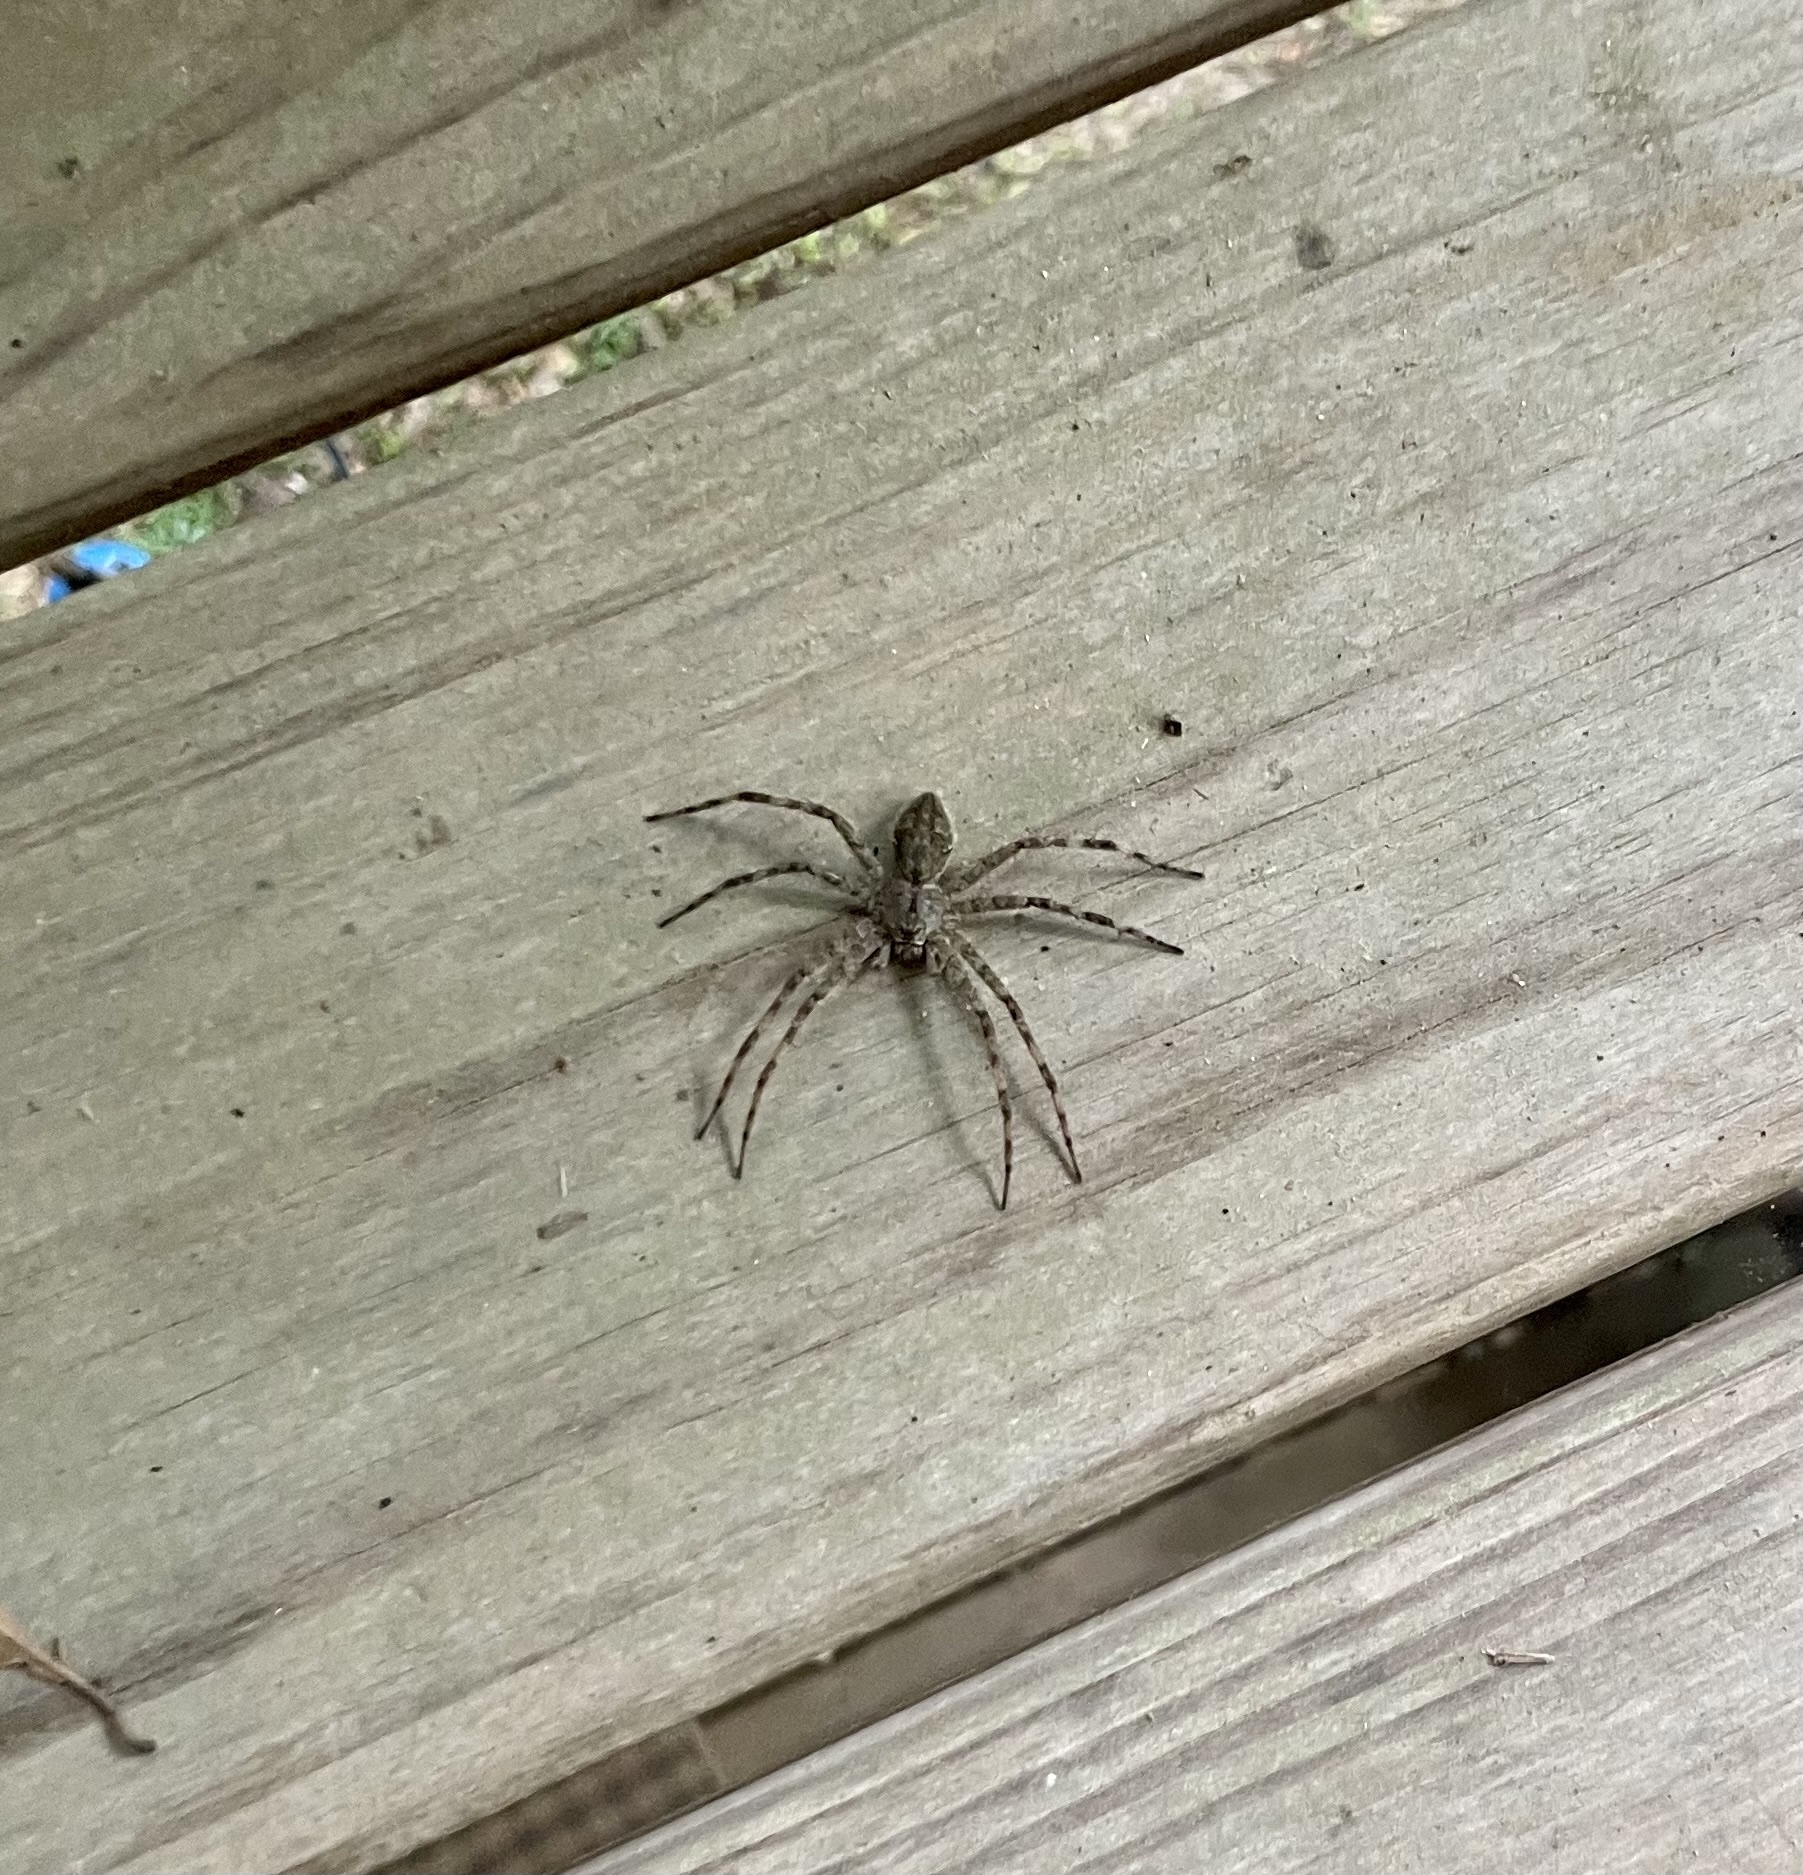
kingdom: Animalia
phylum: Arthropoda
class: Arachnida
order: Araneae
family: Pisauridae
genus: Dolomedes
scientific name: Dolomedes albineus
